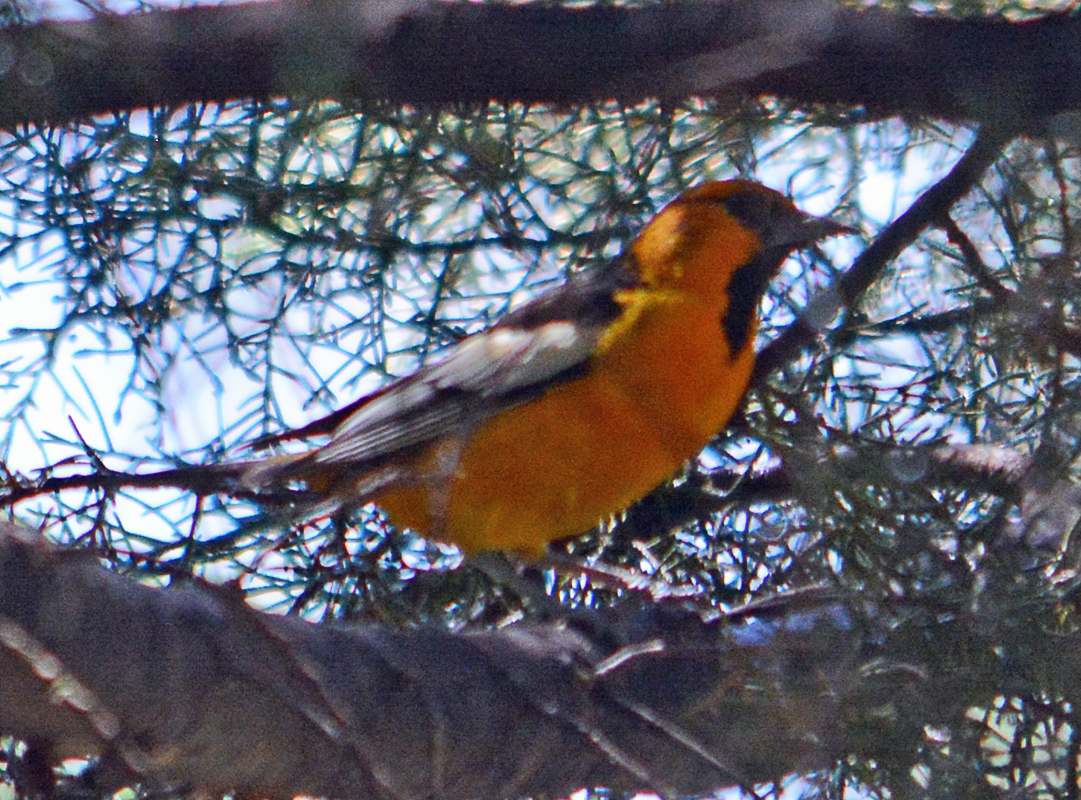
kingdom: Animalia
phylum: Chordata
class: Aves
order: Passeriformes
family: Icteridae
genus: Icterus
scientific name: Icterus bullockii
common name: Bullock's oriole
